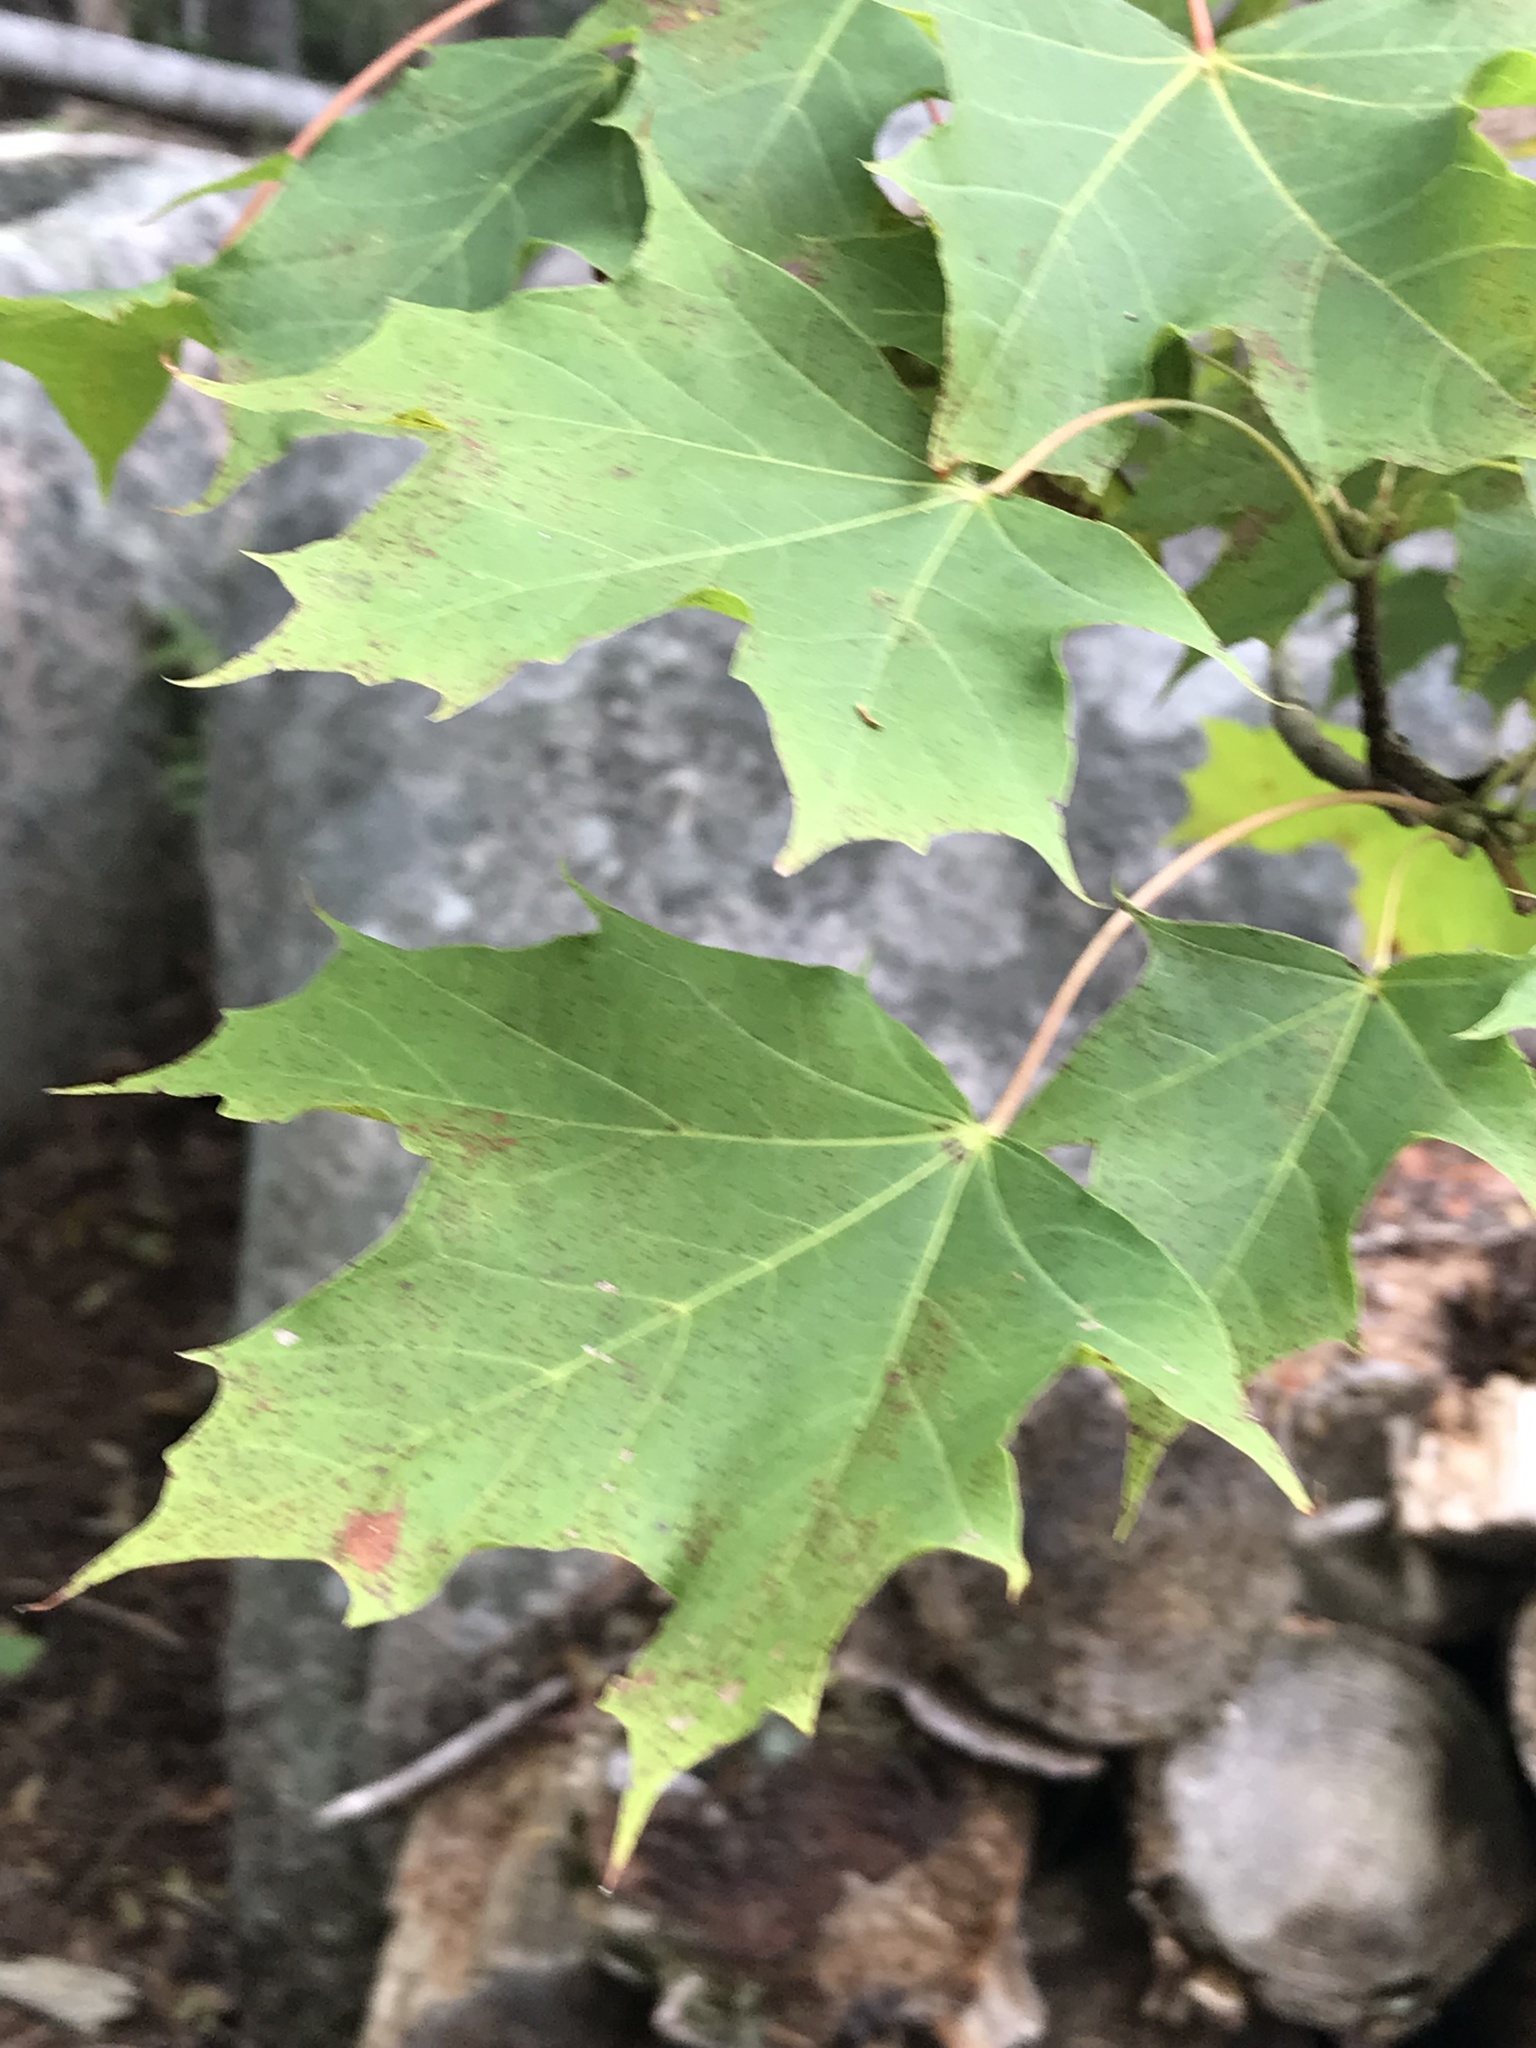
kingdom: Plantae
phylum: Tracheophyta
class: Magnoliopsida
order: Sapindales
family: Sapindaceae
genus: Acer
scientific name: Acer platanoides
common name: Norway maple
